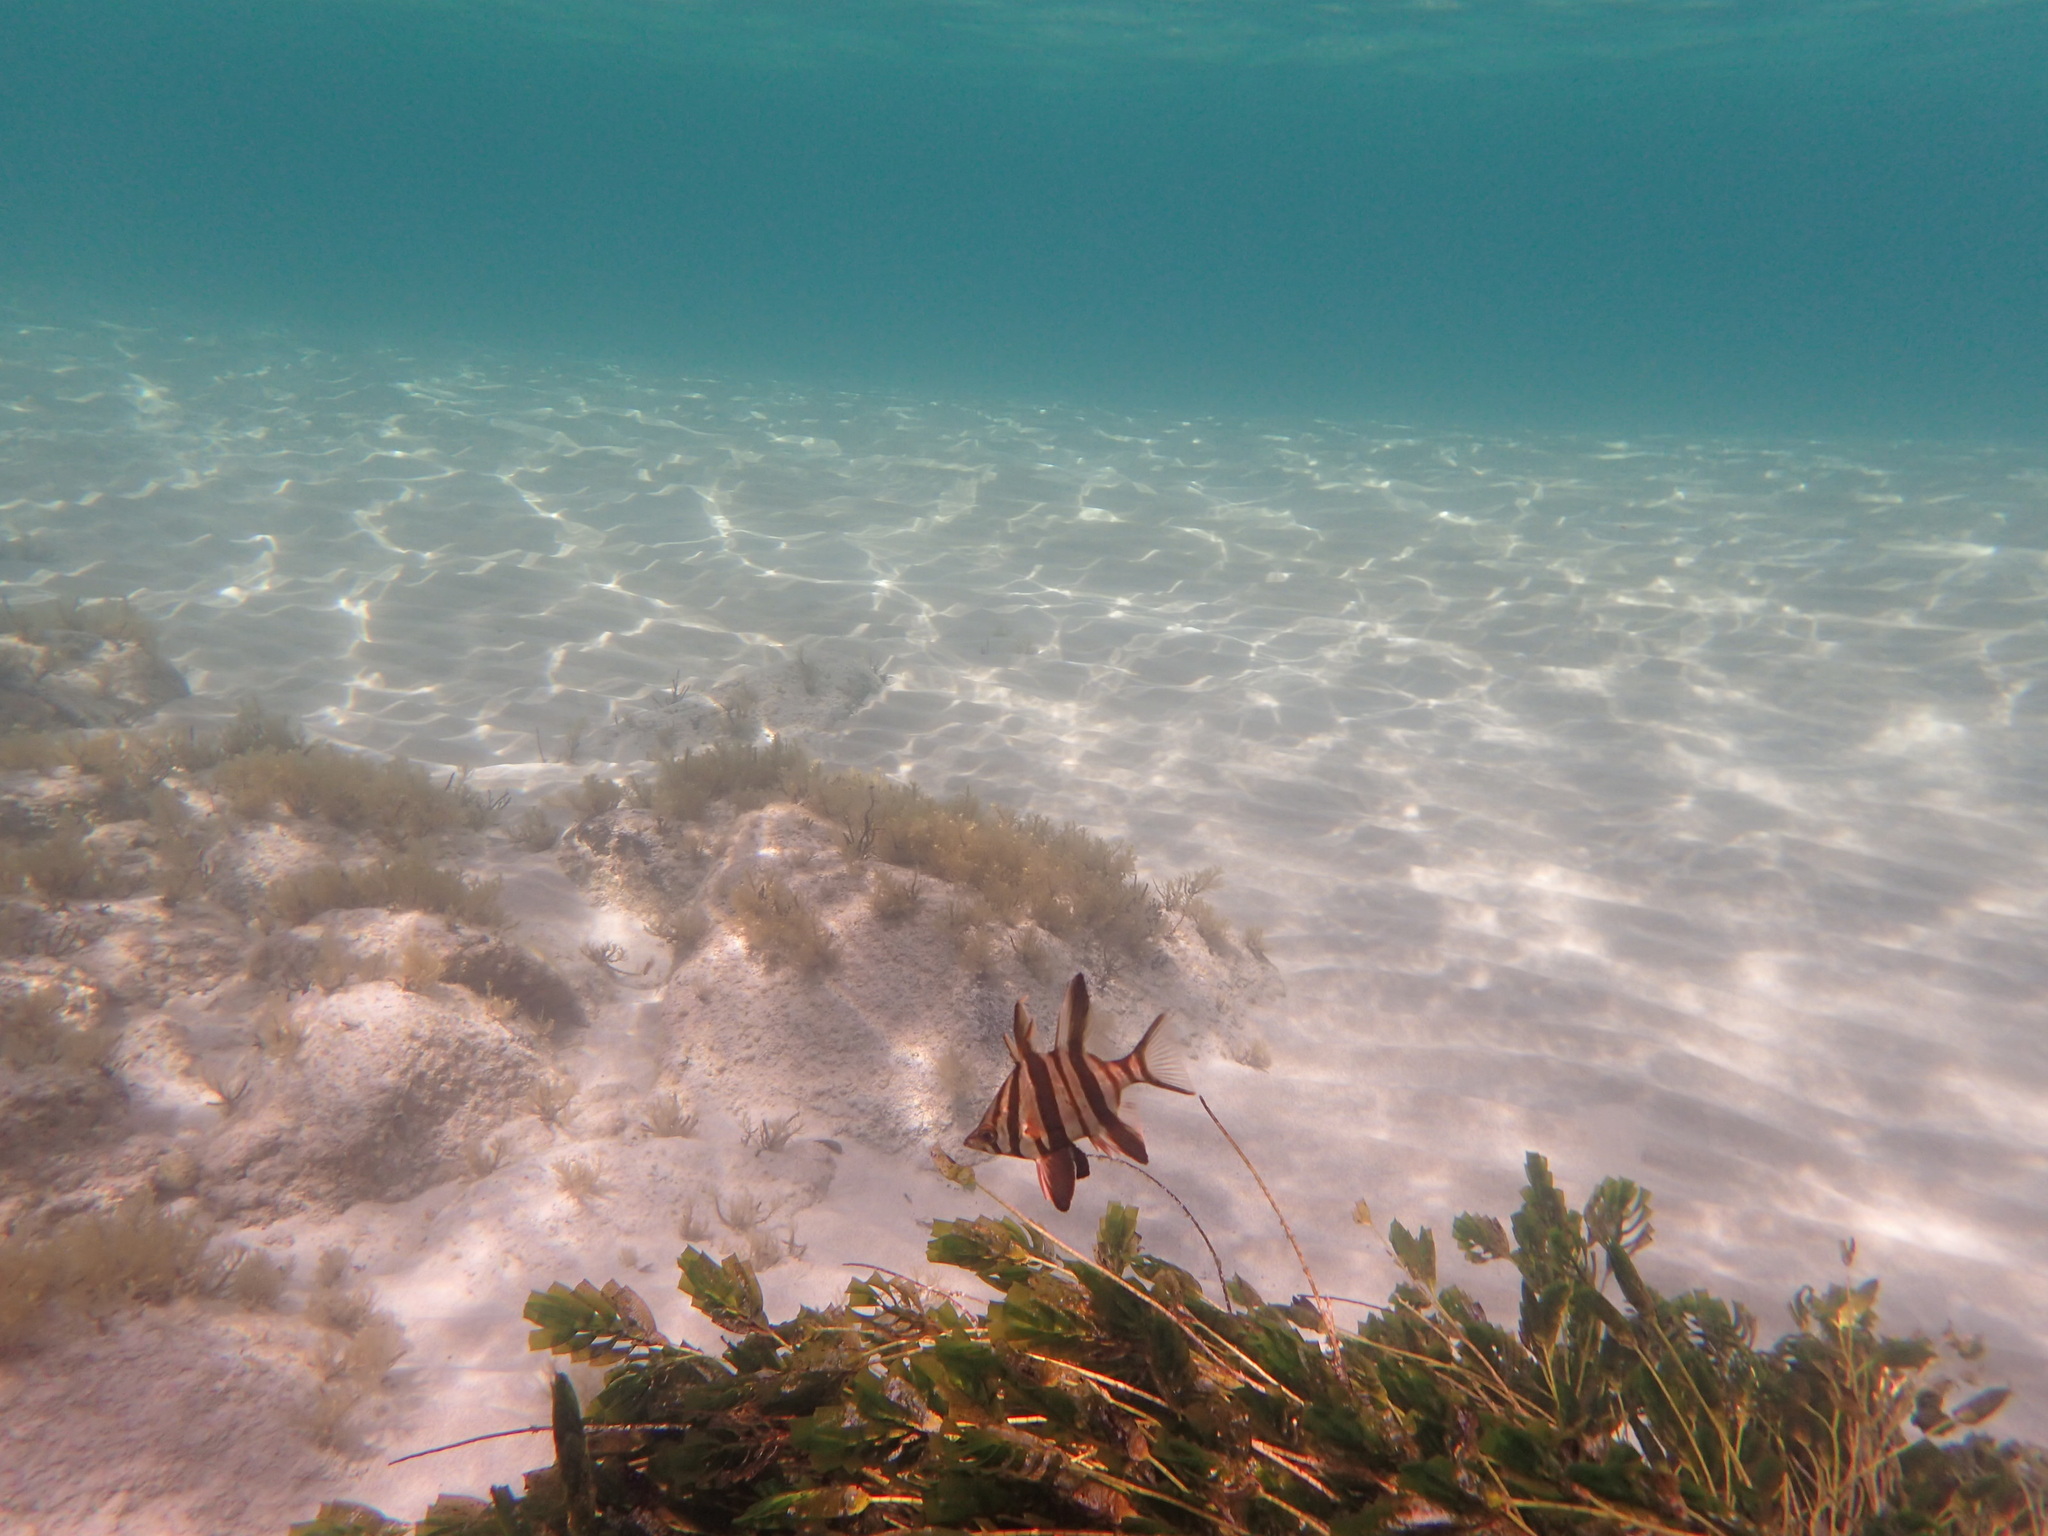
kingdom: Animalia
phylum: Chordata
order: Perciformes
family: Enoplosidae
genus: Enoplosus
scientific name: Enoplosus armatus
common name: Old wife
